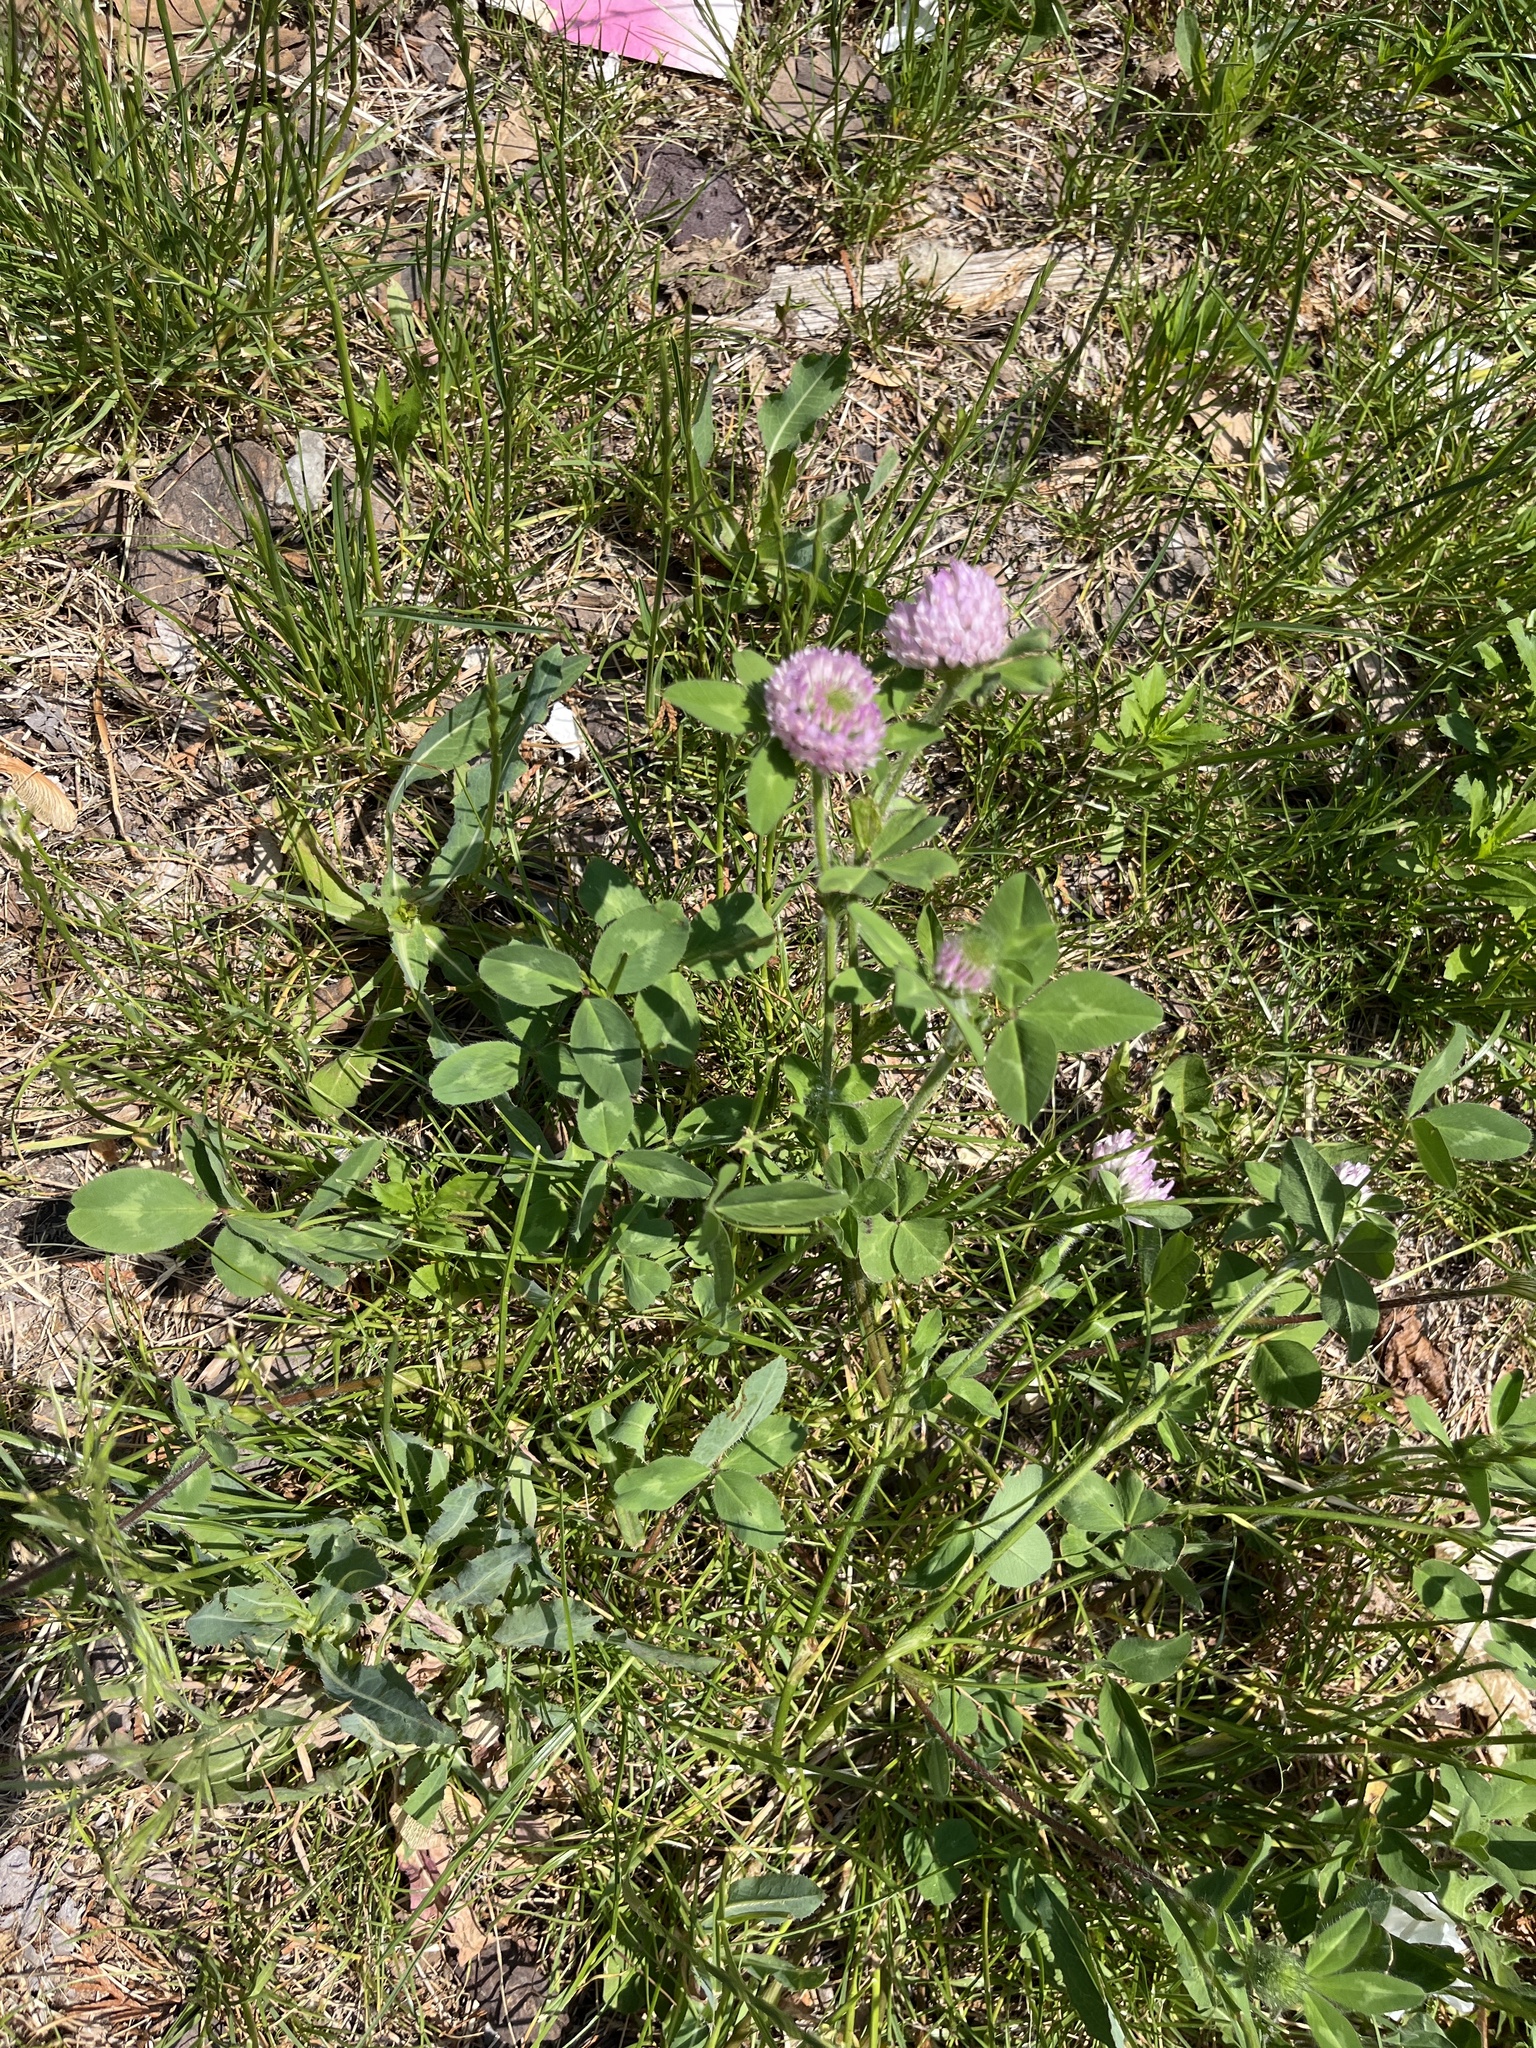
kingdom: Plantae
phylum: Tracheophyta
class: Magnoliopsida
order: Fabales
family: Fabaceae
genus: Trifolium
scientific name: Trifolium pratense
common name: Red clover
